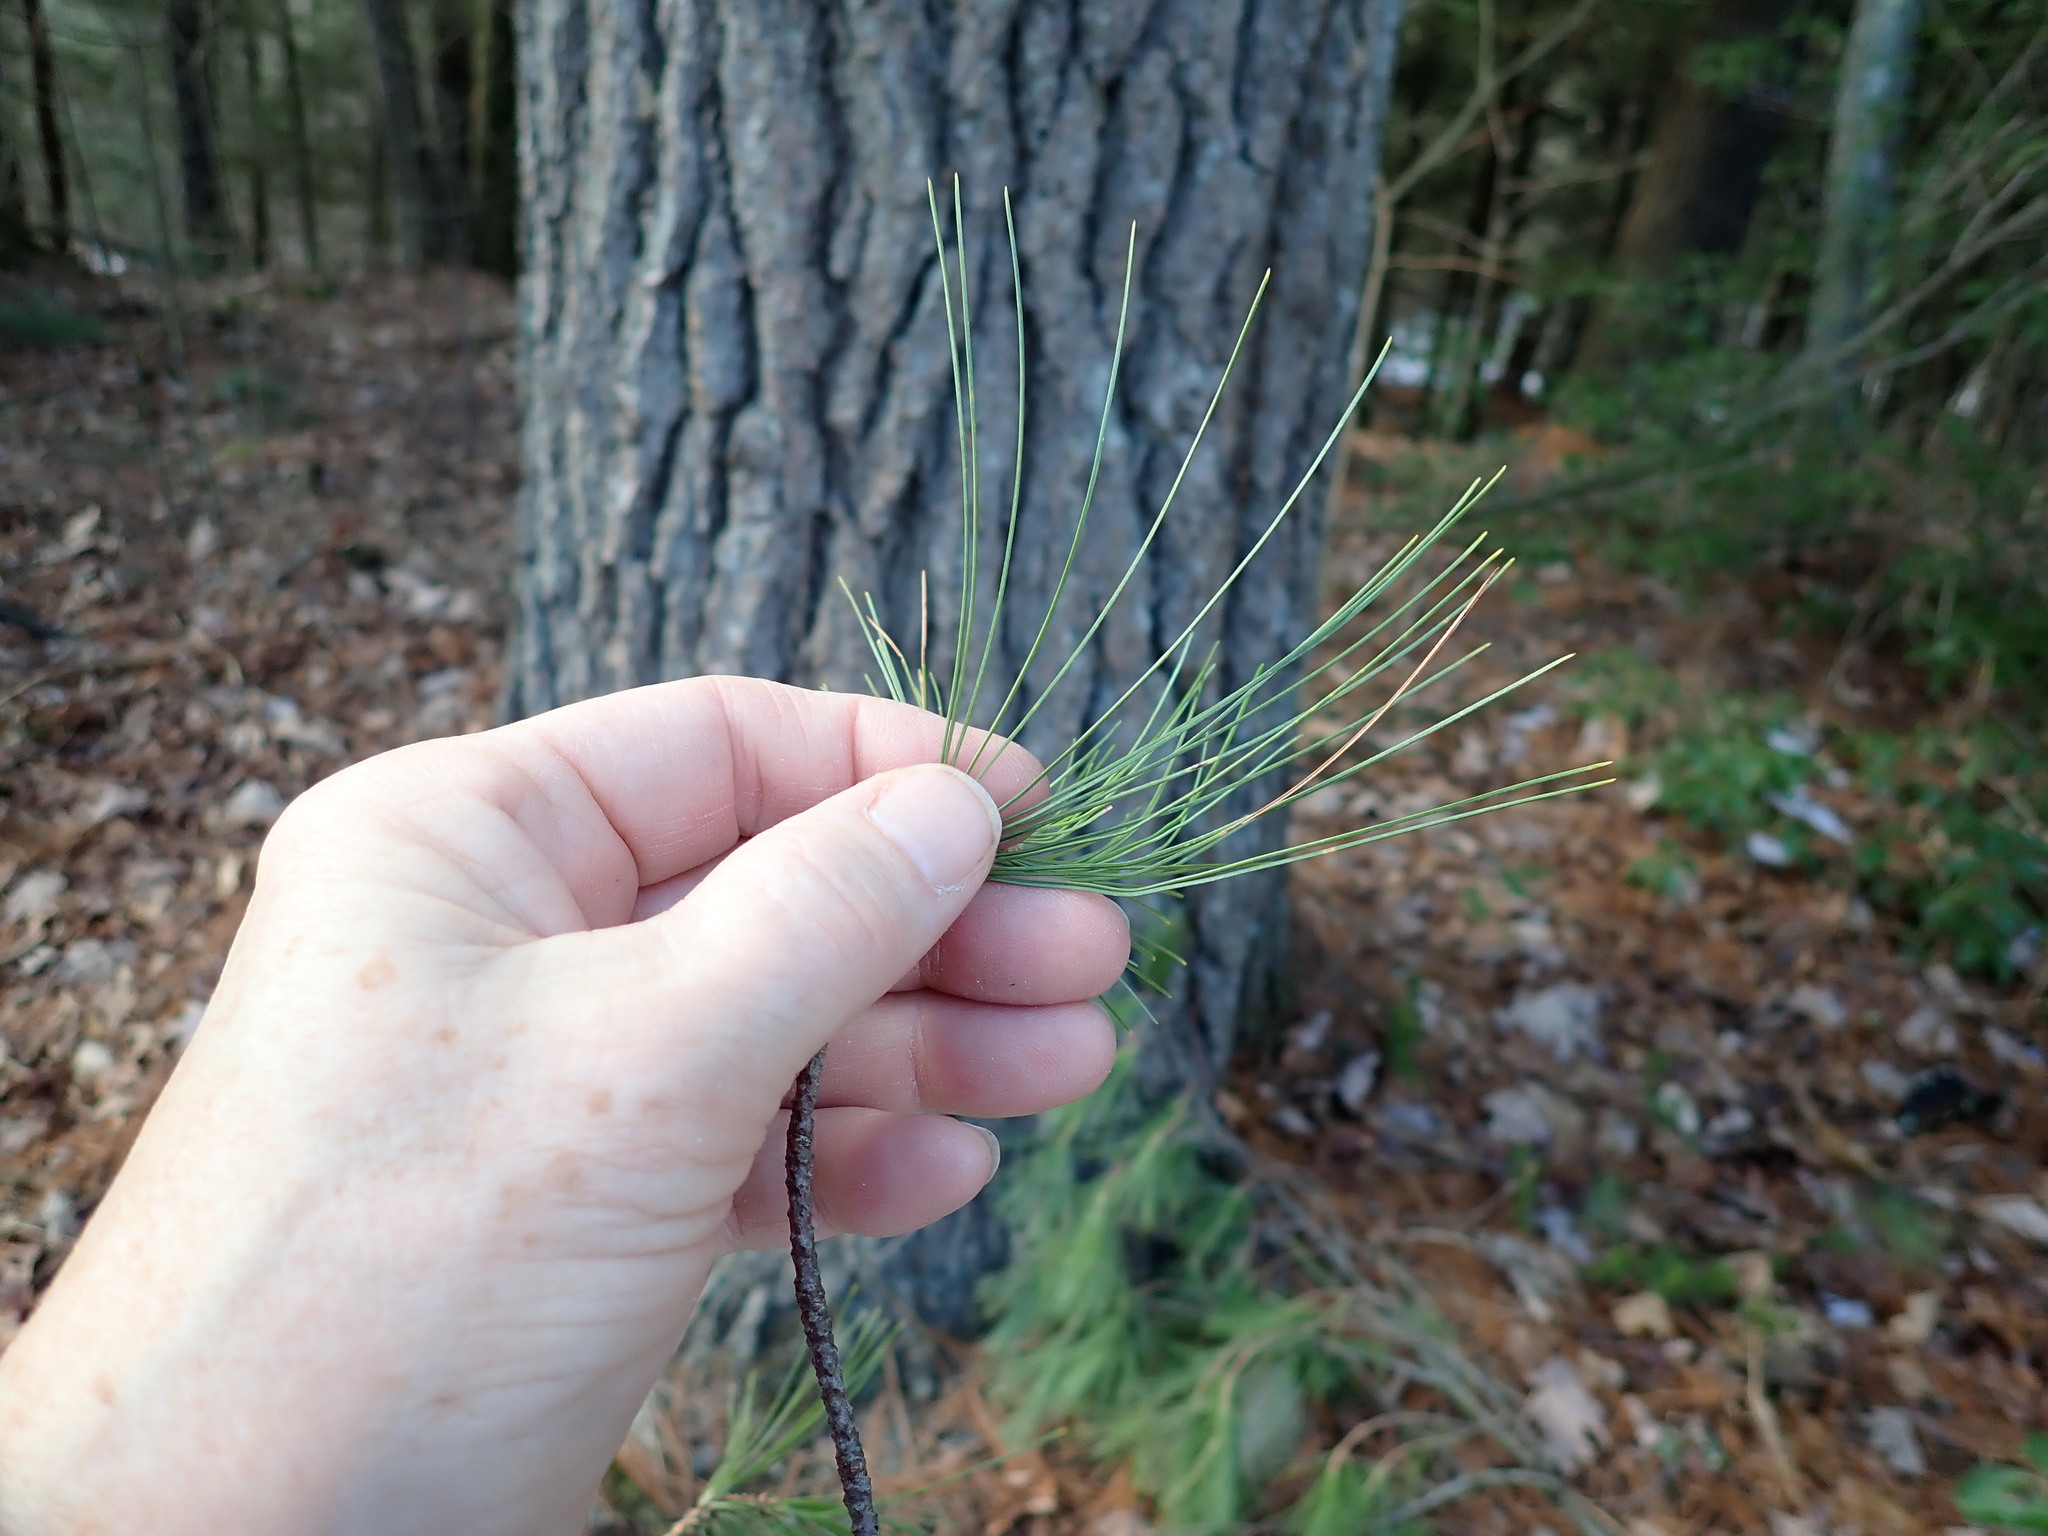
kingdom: Plantae
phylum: Tracheophyta
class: Pinopsida
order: Pinales
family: Pinaceae
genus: Pinus
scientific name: Pinus strobus
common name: Weymouth pine
